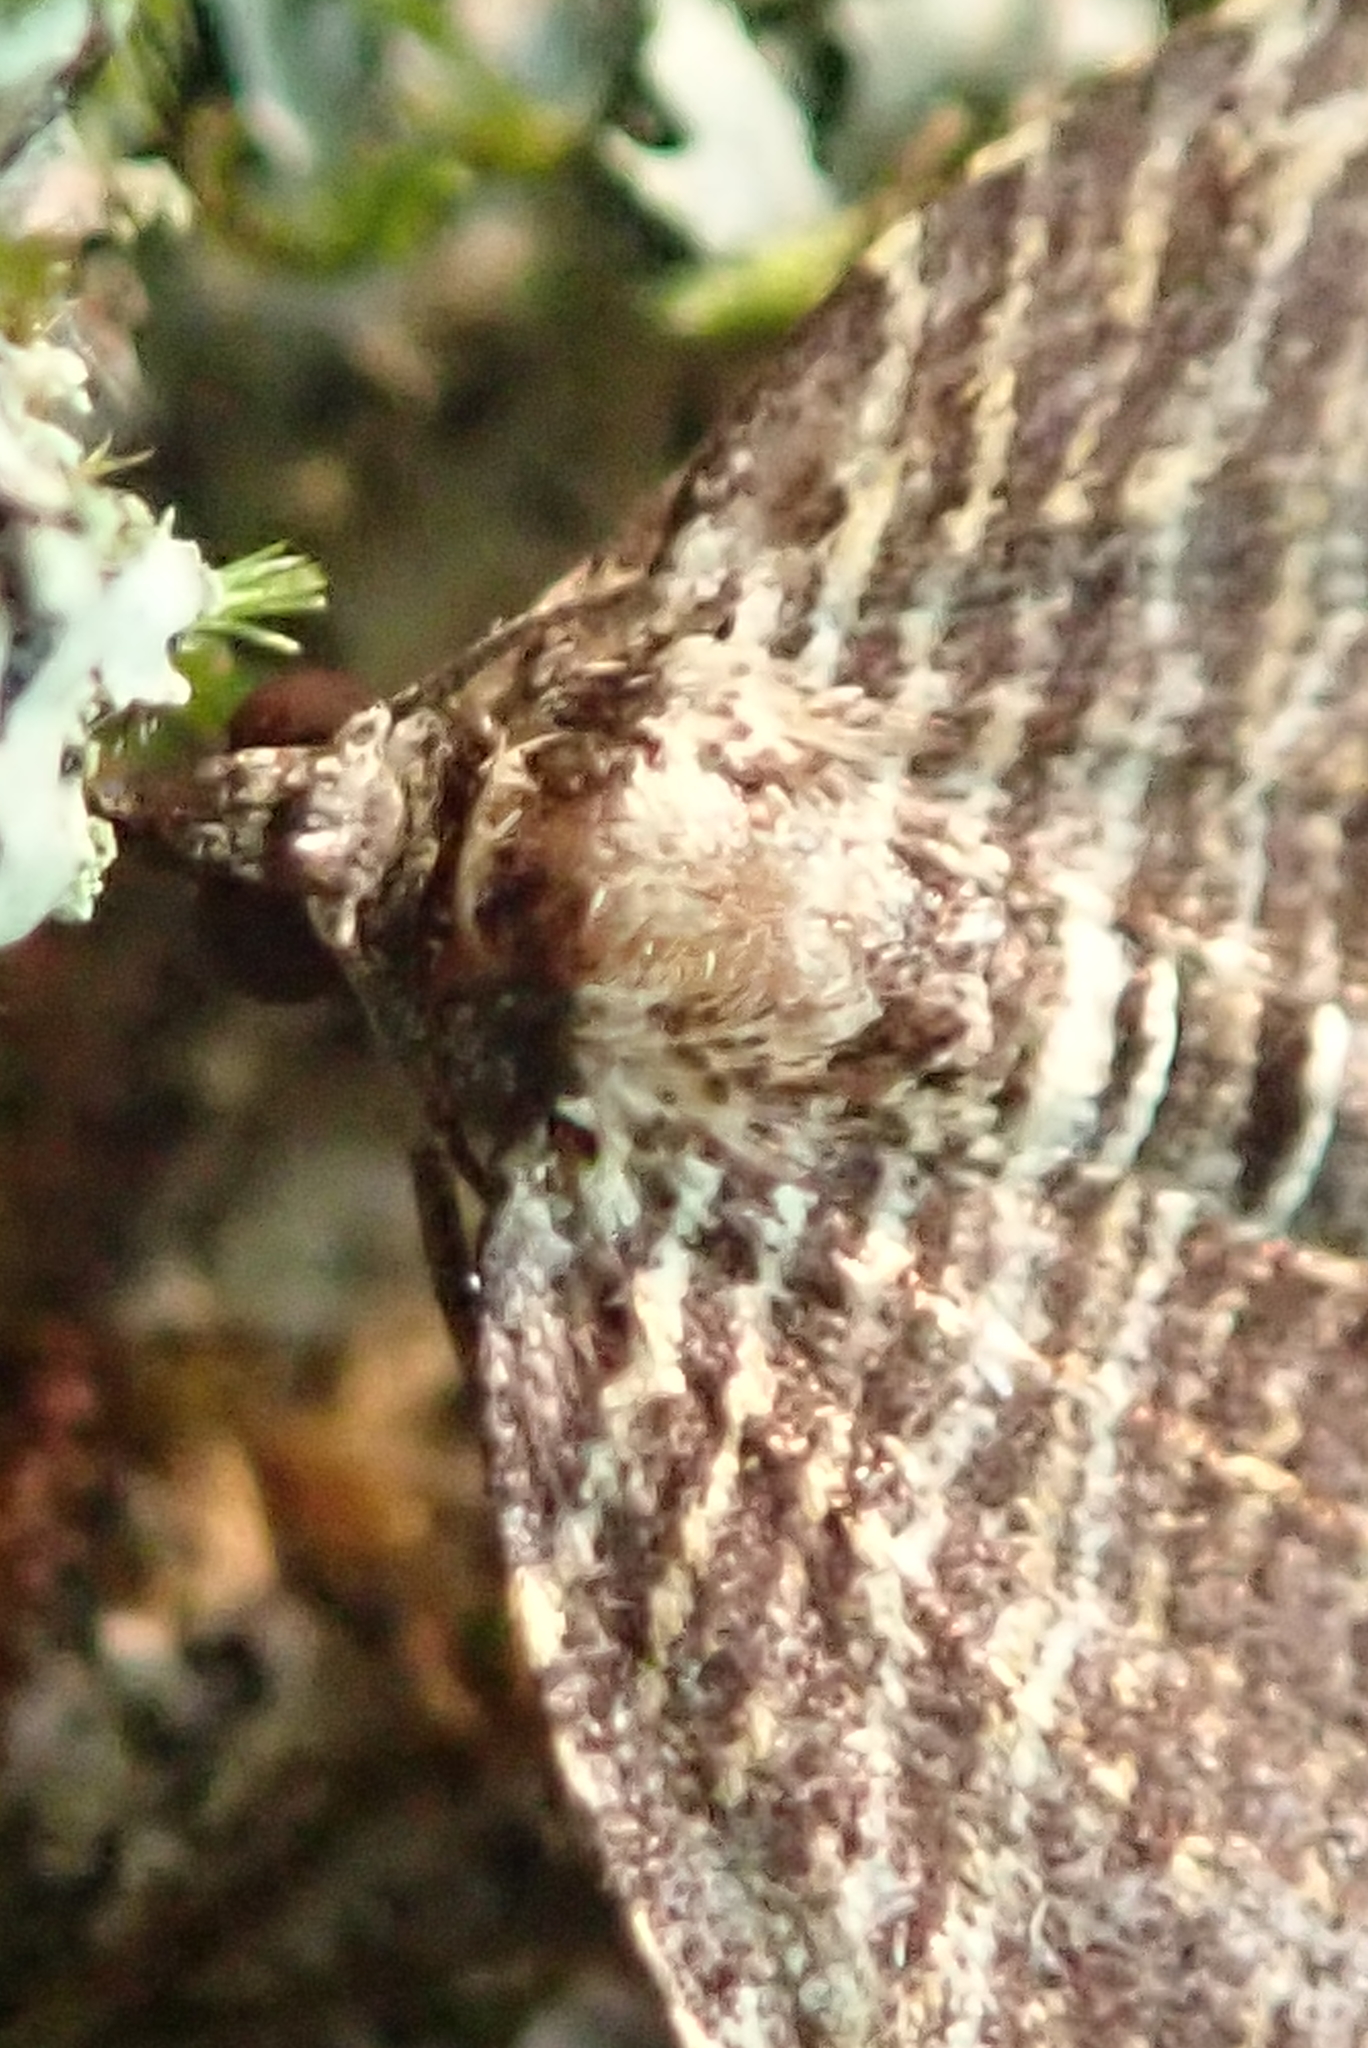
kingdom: Animalia
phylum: Arthropoda
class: Insecta
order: Lepidoptera
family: Geometridae
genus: Anticlea
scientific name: Anticlea multiferata
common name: Many-lined carpet
